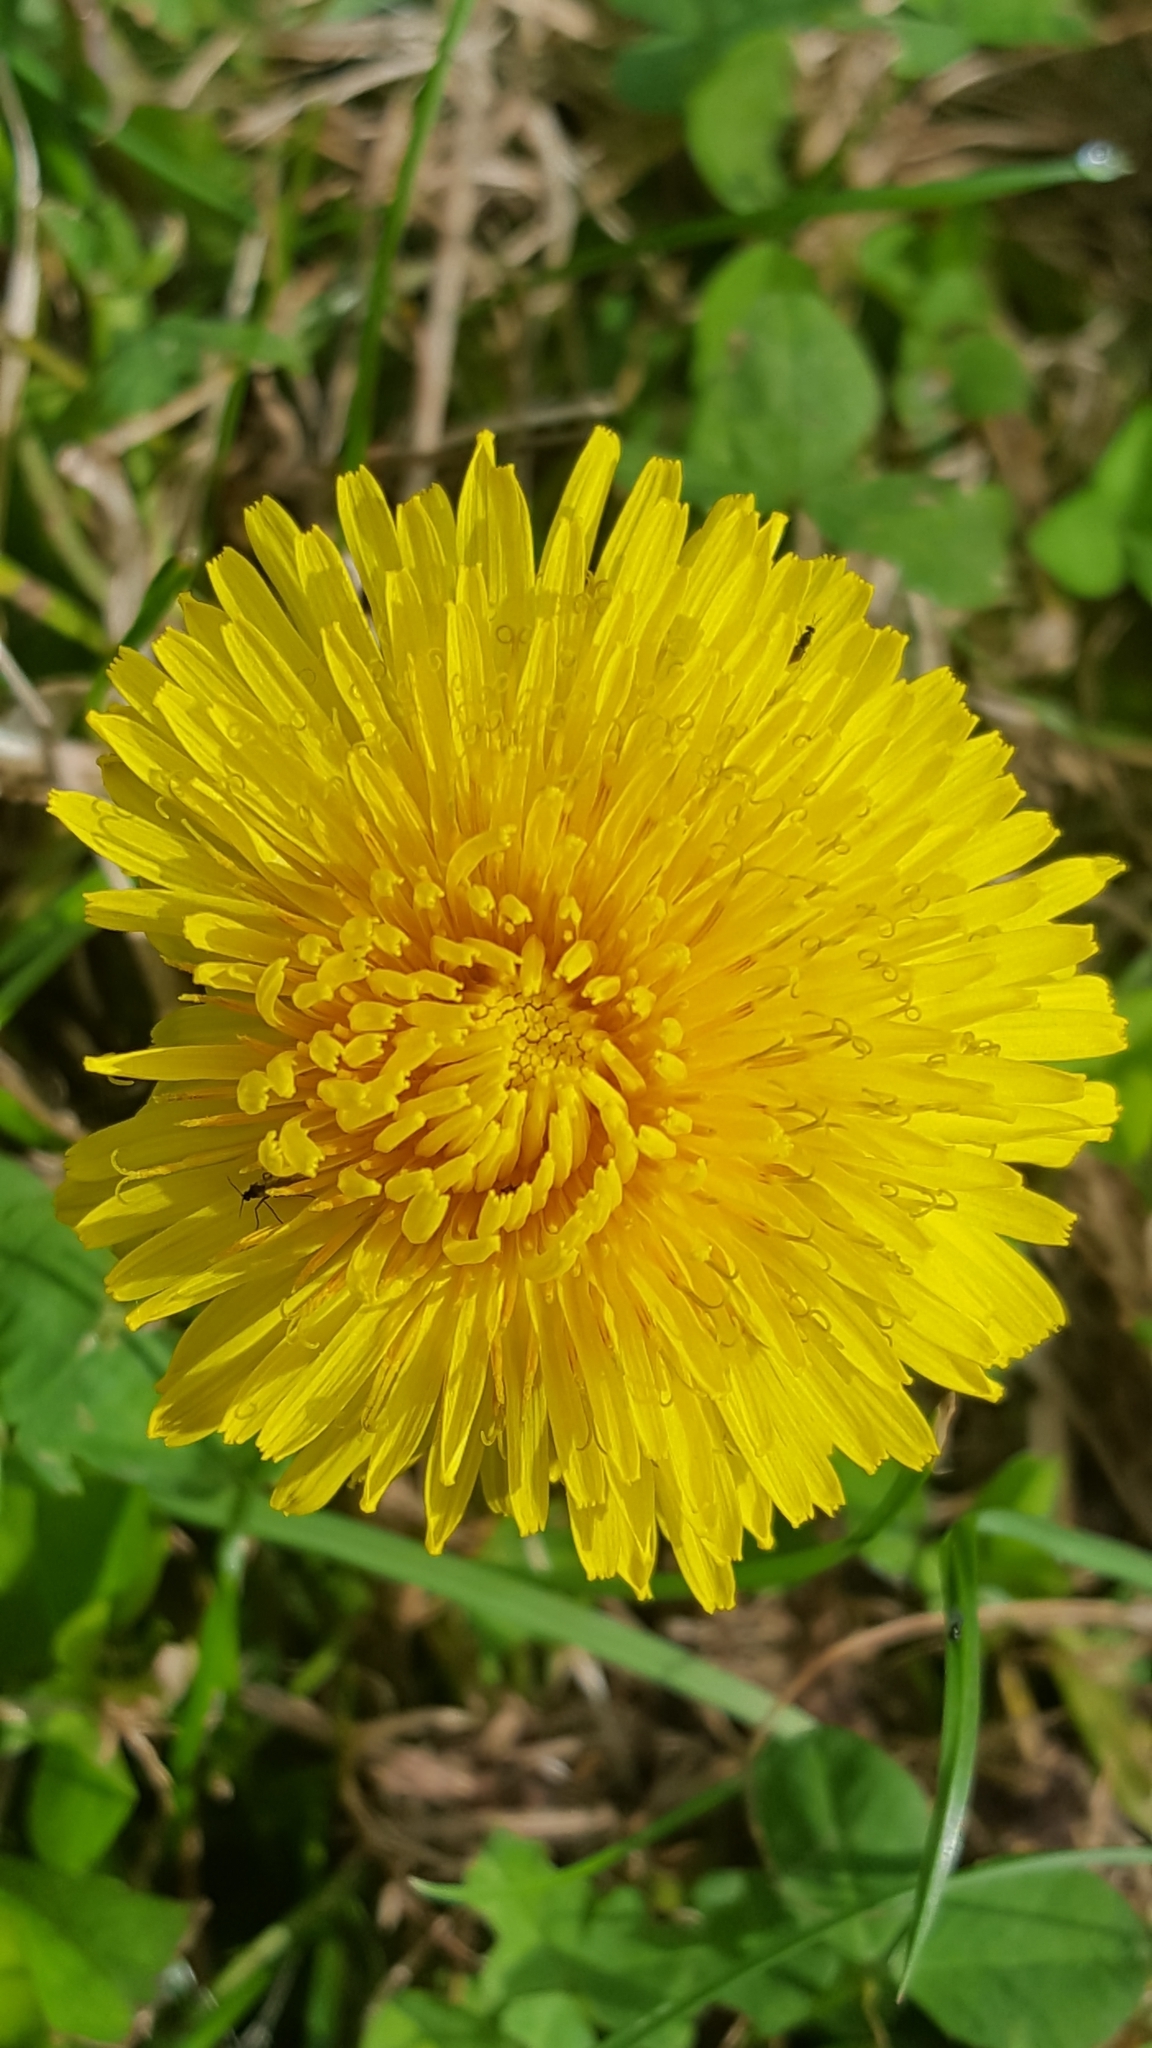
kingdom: Plantae
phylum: Tracheophyta
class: Magnoliopsida
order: Asterales
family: Asteraceae
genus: Taraxacum
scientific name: Taraxacum officinale
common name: Common dandelion
